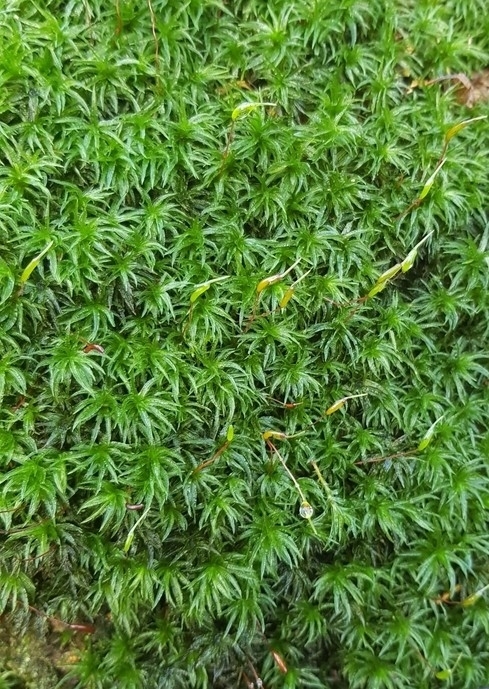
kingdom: Plantae
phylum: Bryophyta
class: Polytrichopsida
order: Polytrichales
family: Polytrichaceae
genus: Atrichum
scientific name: Atrichum undulatum
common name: Common smoothcap
